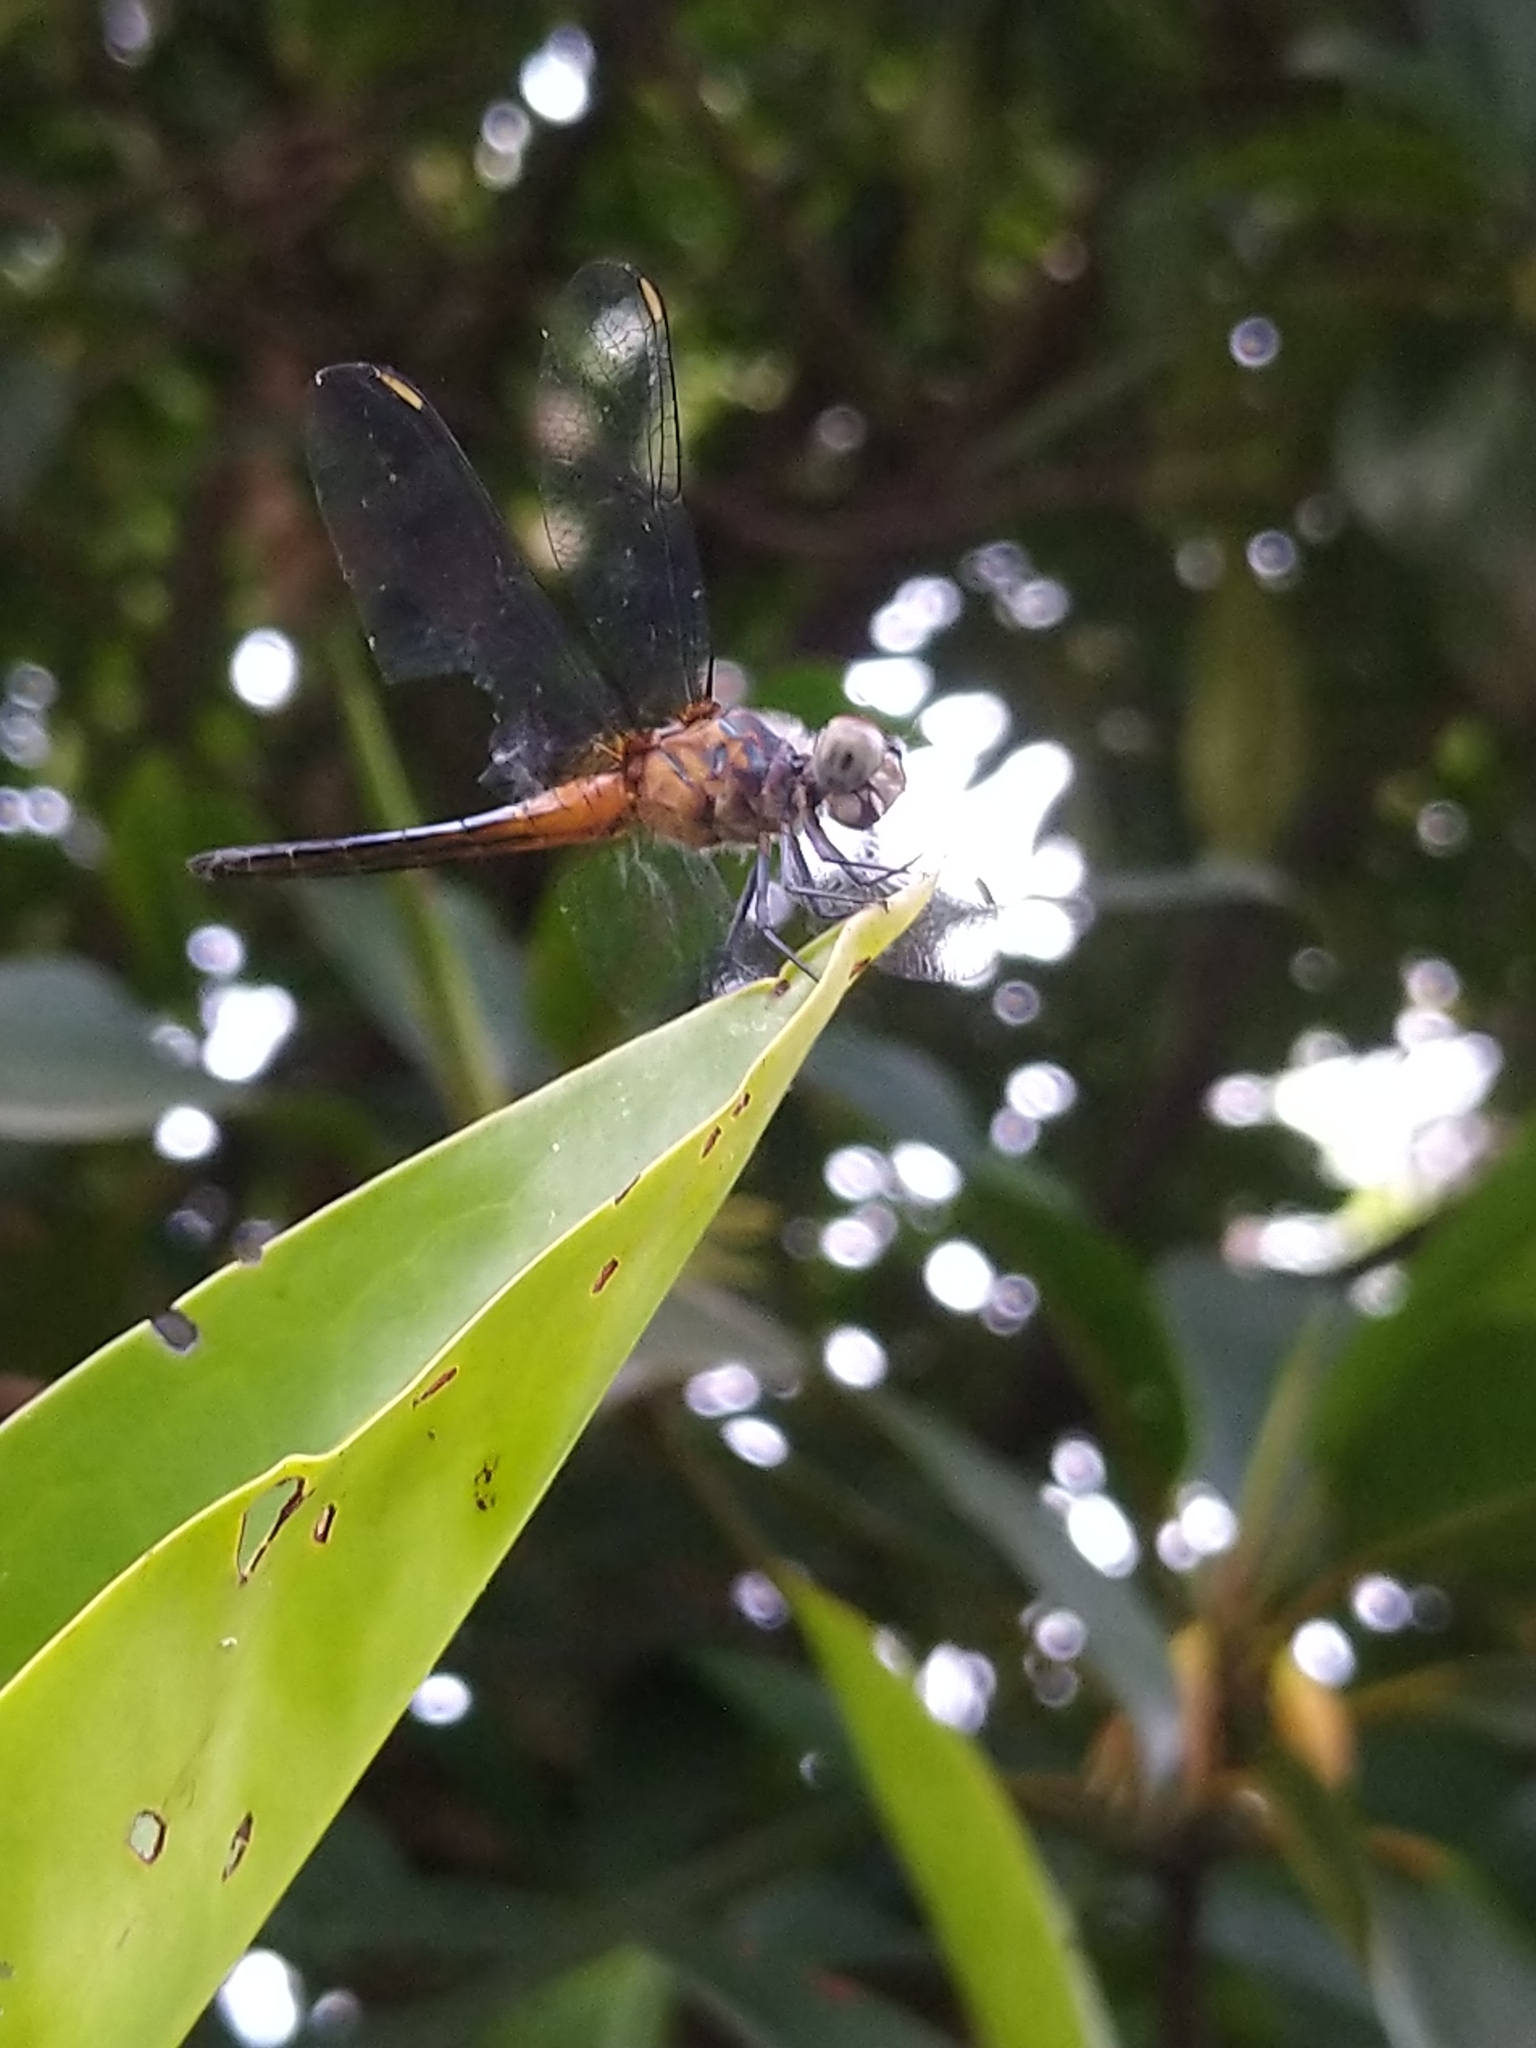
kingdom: Animalia
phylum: Arthropoda
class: Insecta
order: Odonata
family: Libellulidae
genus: Brachydiplax
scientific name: Brachydiplax chalybea
